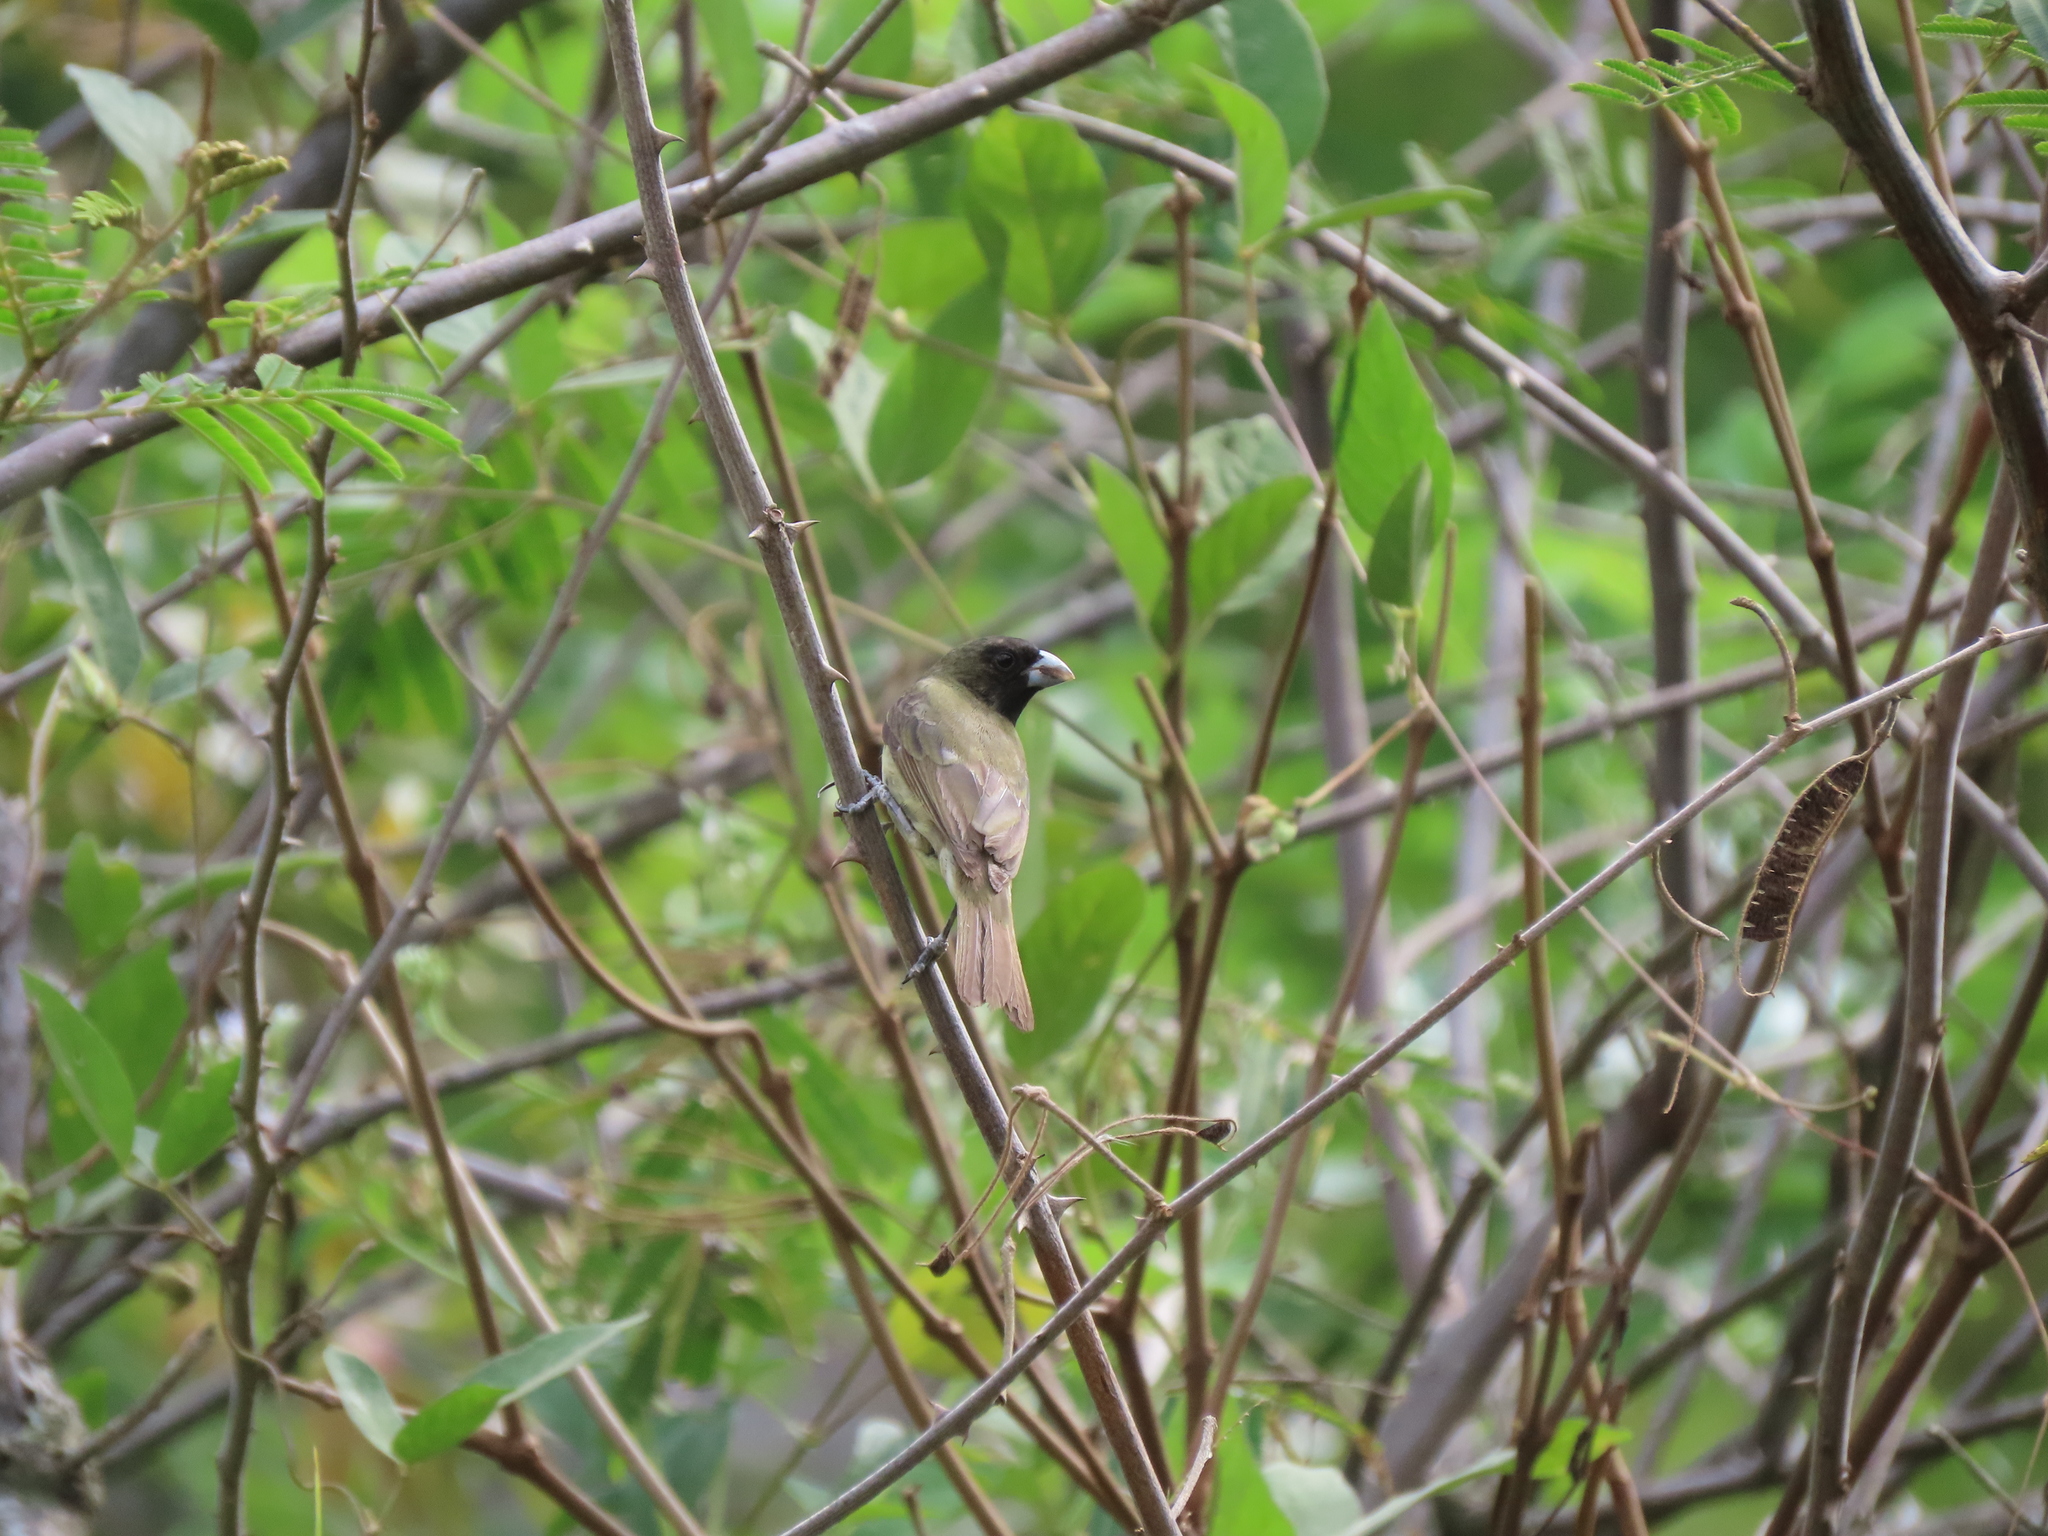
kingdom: Animalia
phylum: Chordata
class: Aves
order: Passeriformes
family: Thraupidae
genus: Sporophila
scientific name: Sporophila nigricollis
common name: Yellow-bellied seedeater
